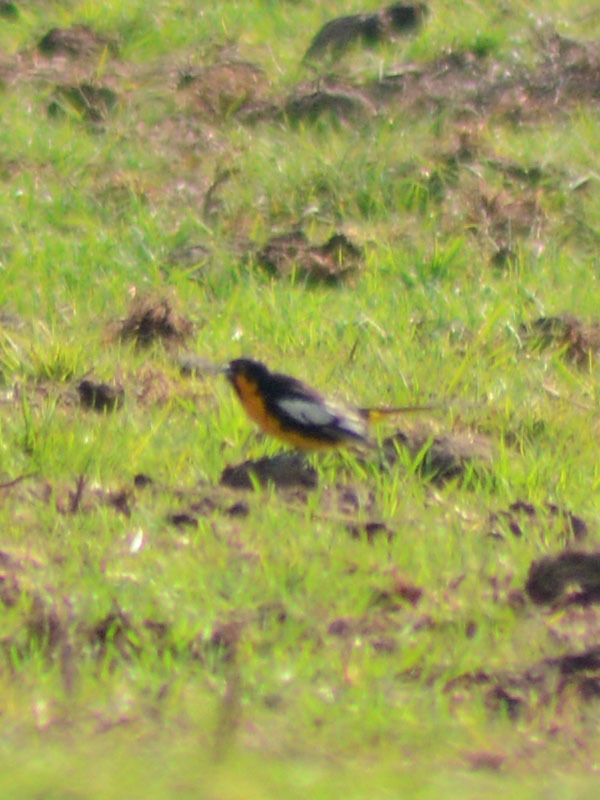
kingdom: Animalia
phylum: Chordata
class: Aves
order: Passeriformes
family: Icteridae
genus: Icterus
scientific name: Icterus abeillei
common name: Black-backed oriole
